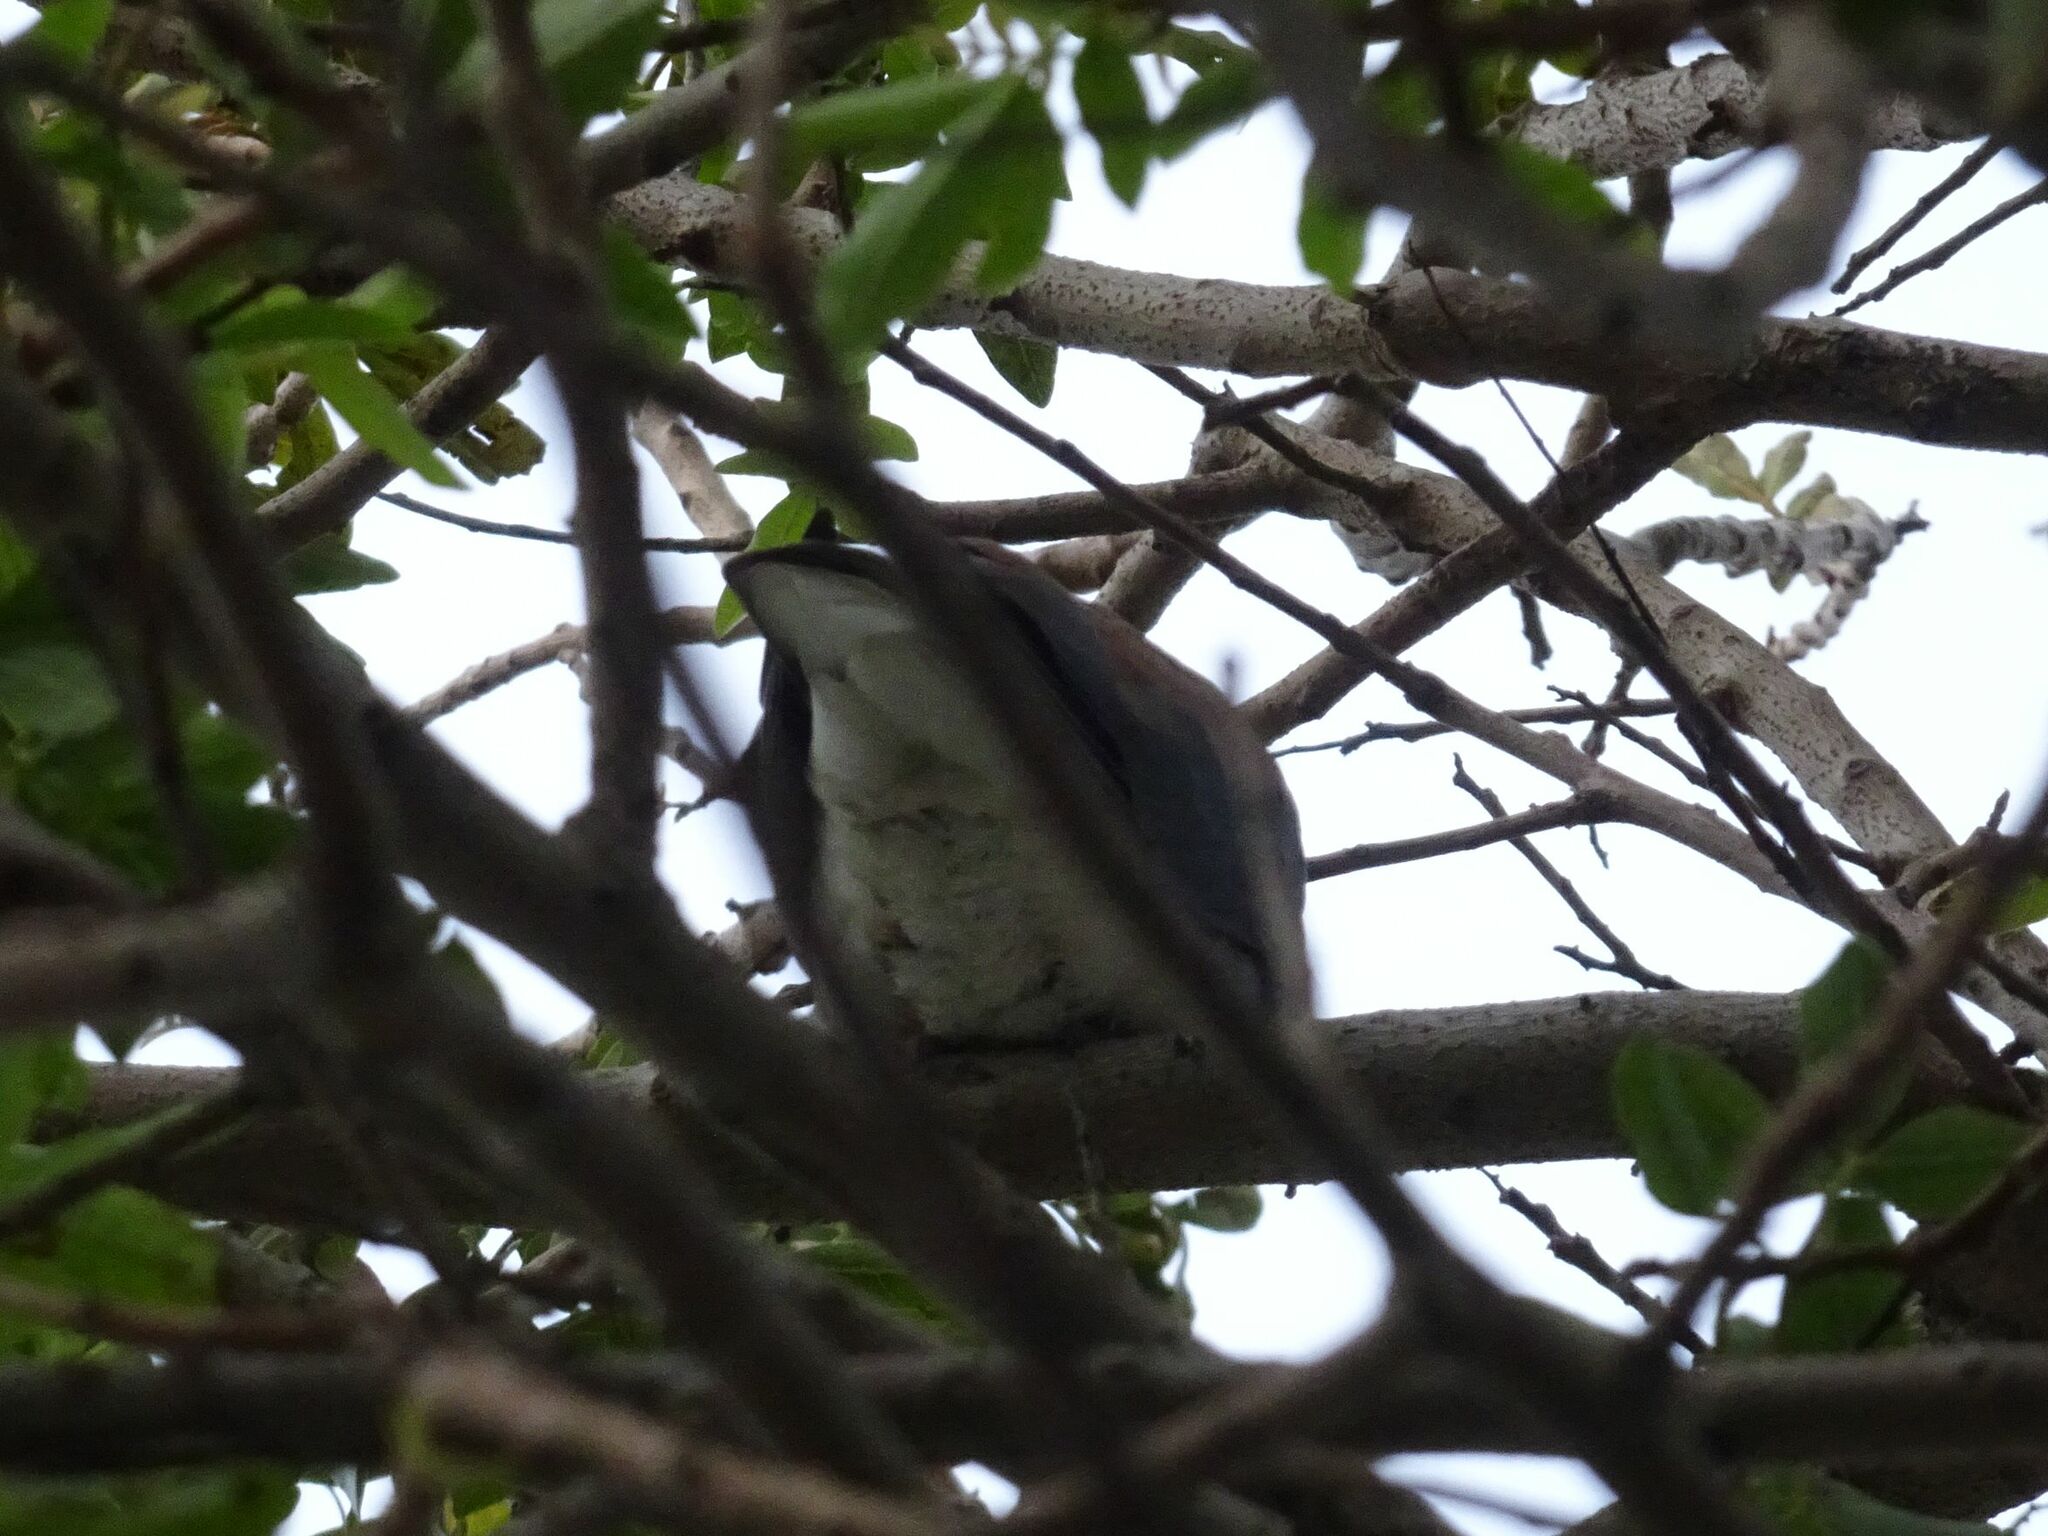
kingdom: Animalia
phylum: Chordata
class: Aves
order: Columbiformes
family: Columbidae
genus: Spilopelia
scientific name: Spilopelia senegalensis
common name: Laughing dove
